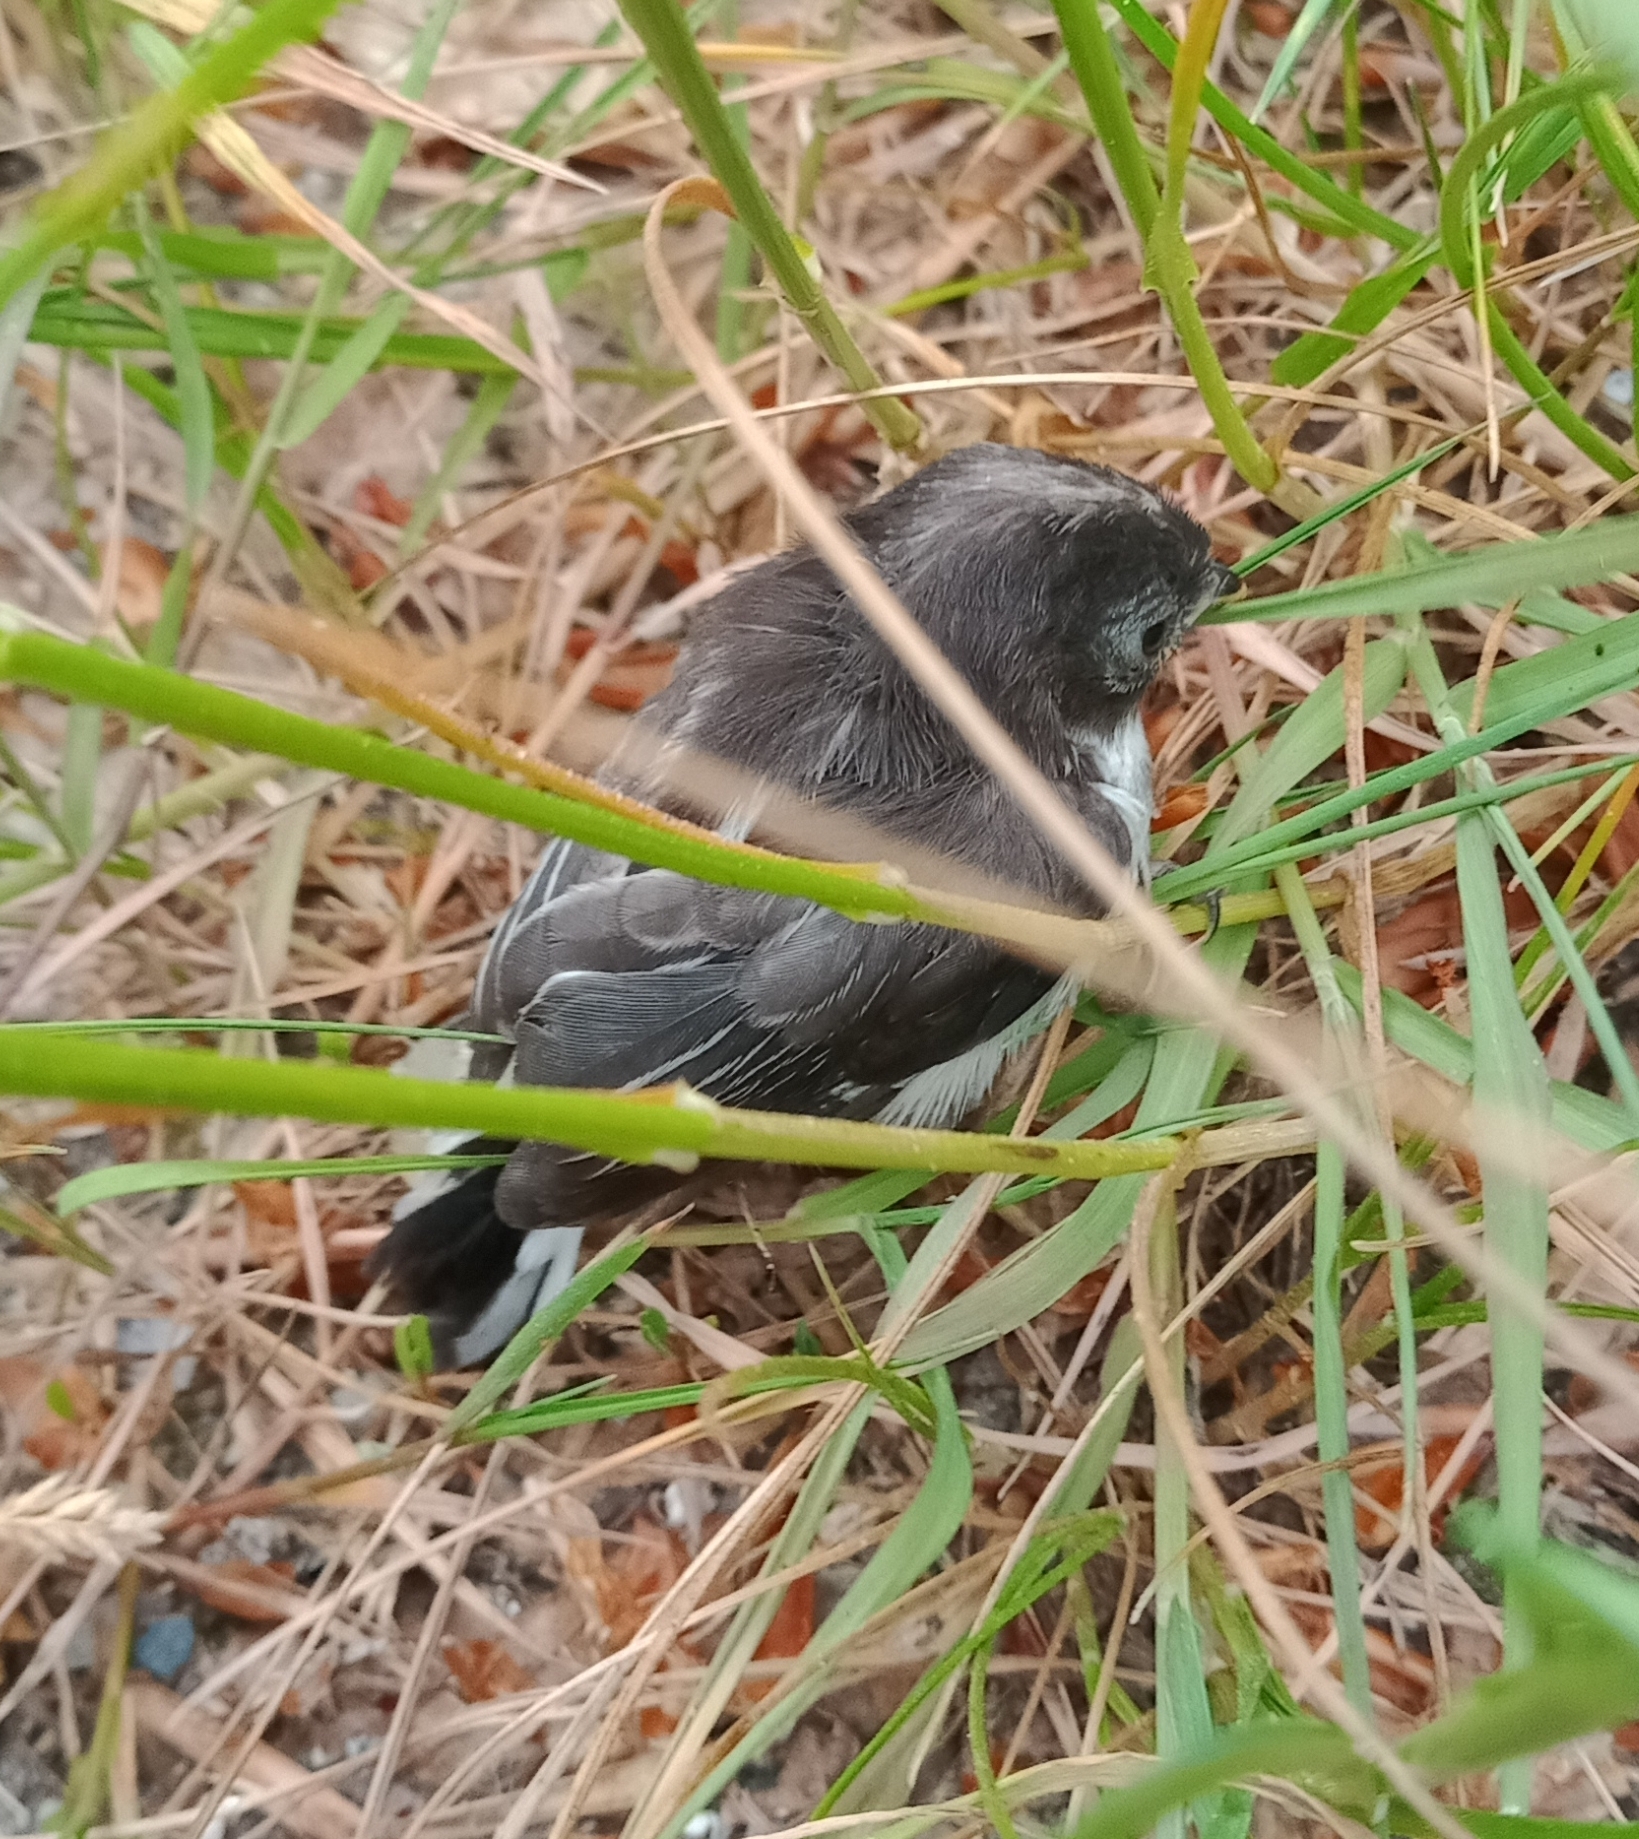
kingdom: Animalia
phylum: Chordata
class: Aves
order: Passeriformes
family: Aegithalidae
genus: Aegithalos
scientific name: Aegithalos caudatus
